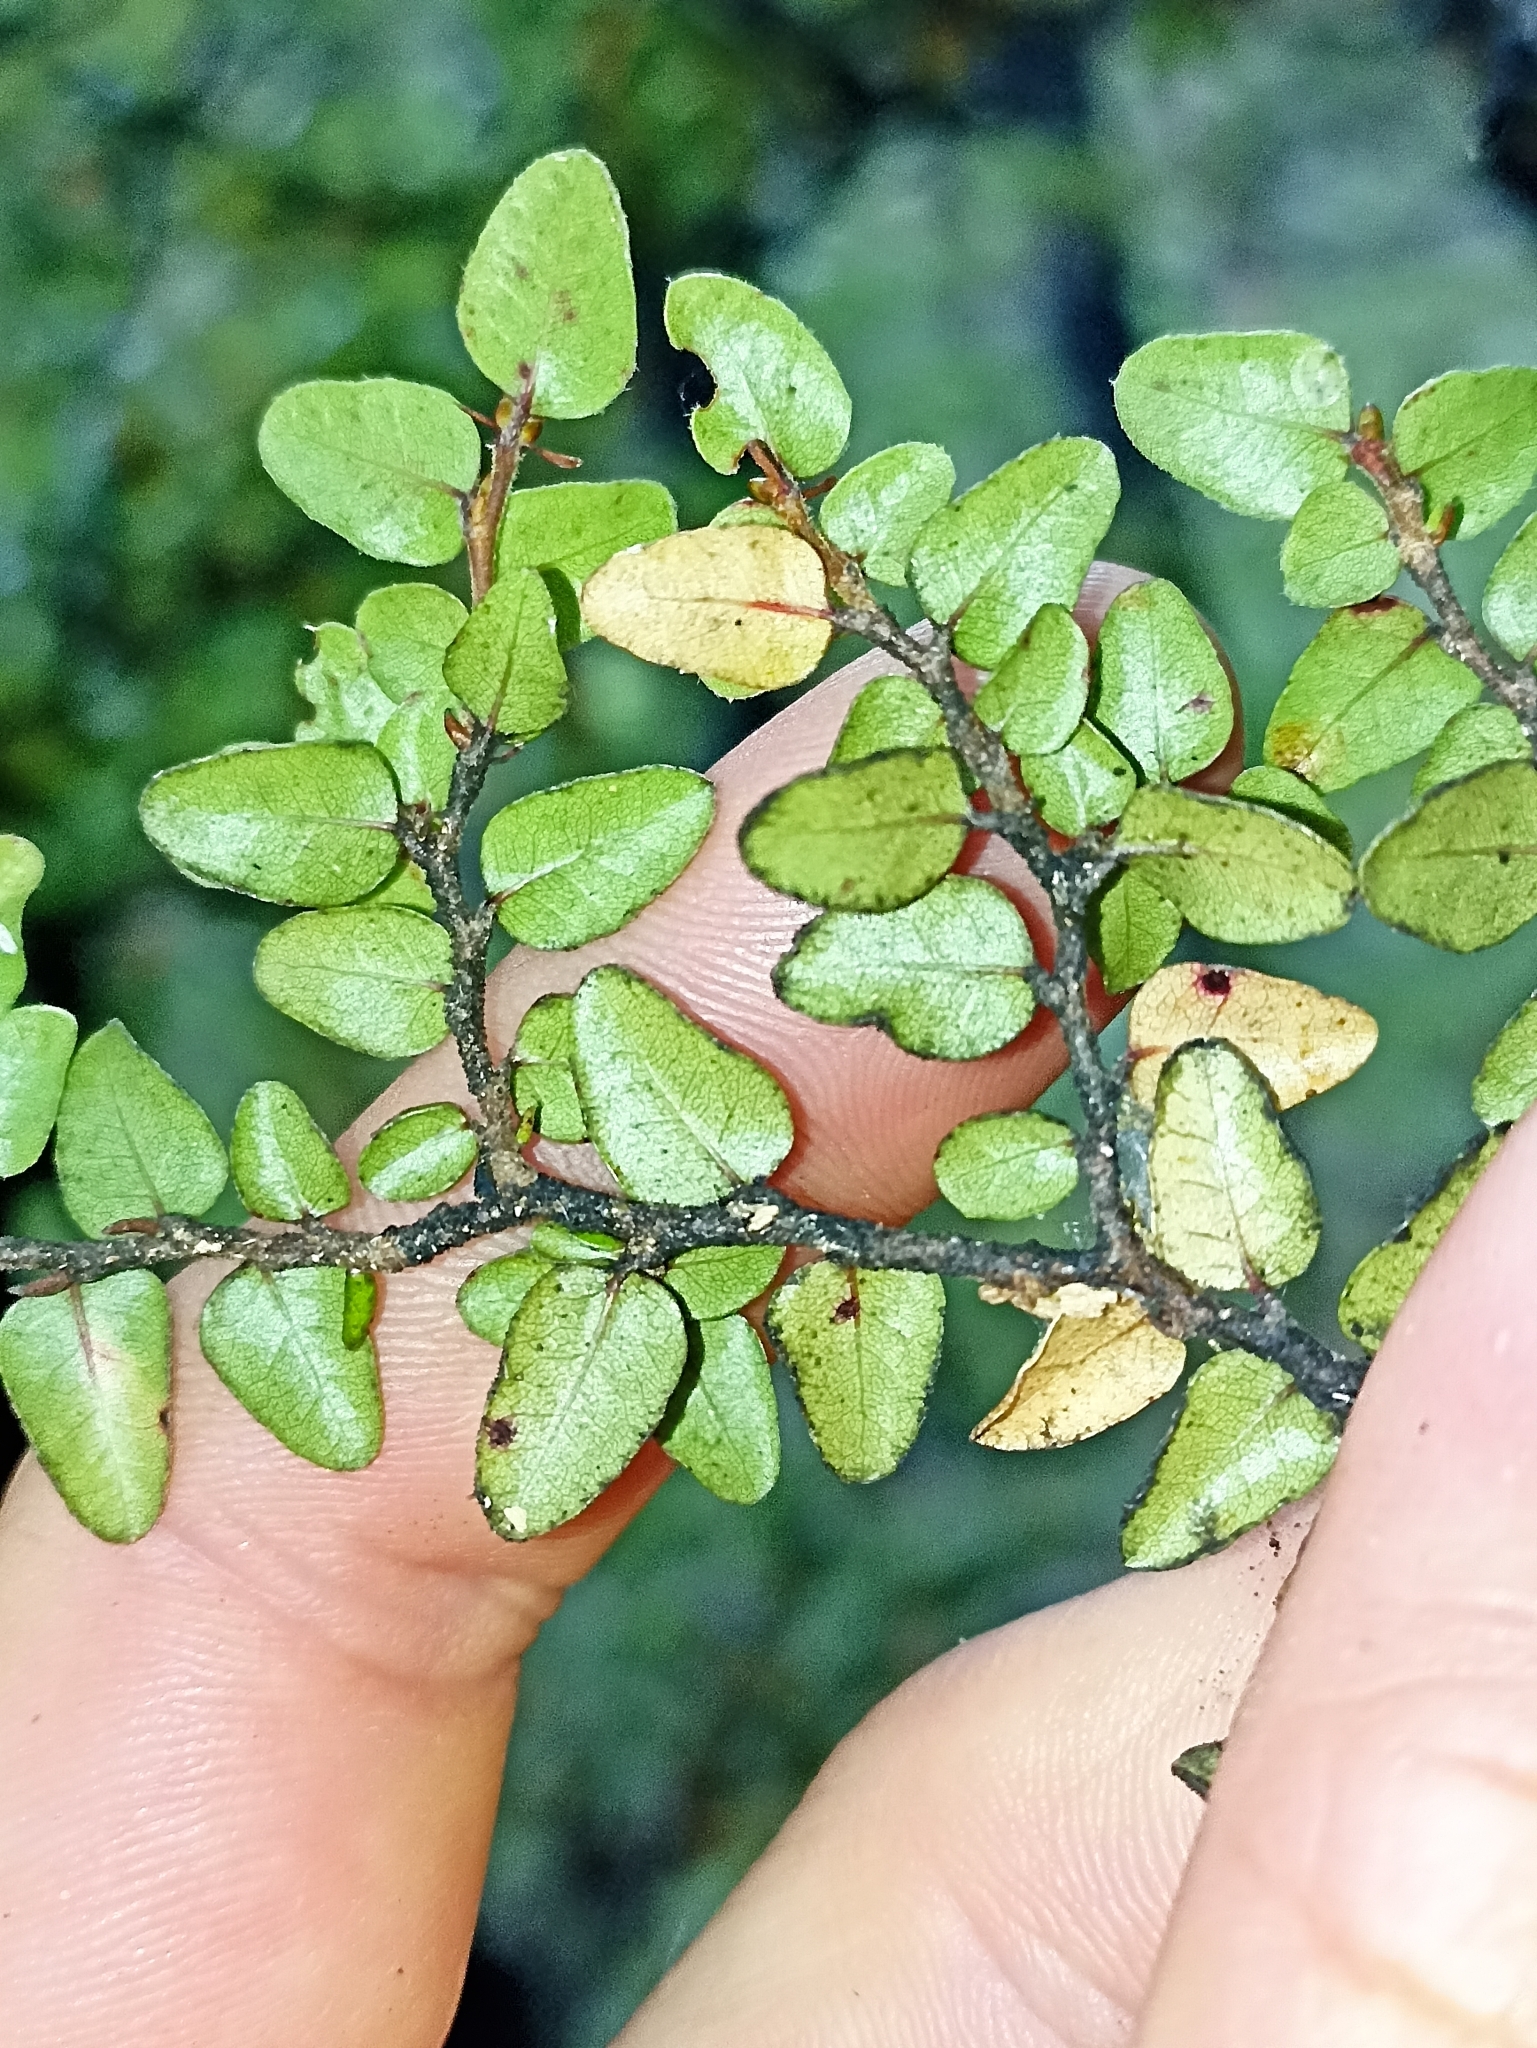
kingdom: Plantae
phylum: Tracheophyta
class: Magnoliopsida
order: Fagales
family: Nothofagaceae
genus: Nothofagus
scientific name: Nothofagus cliffortioides
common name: Mountain beech
